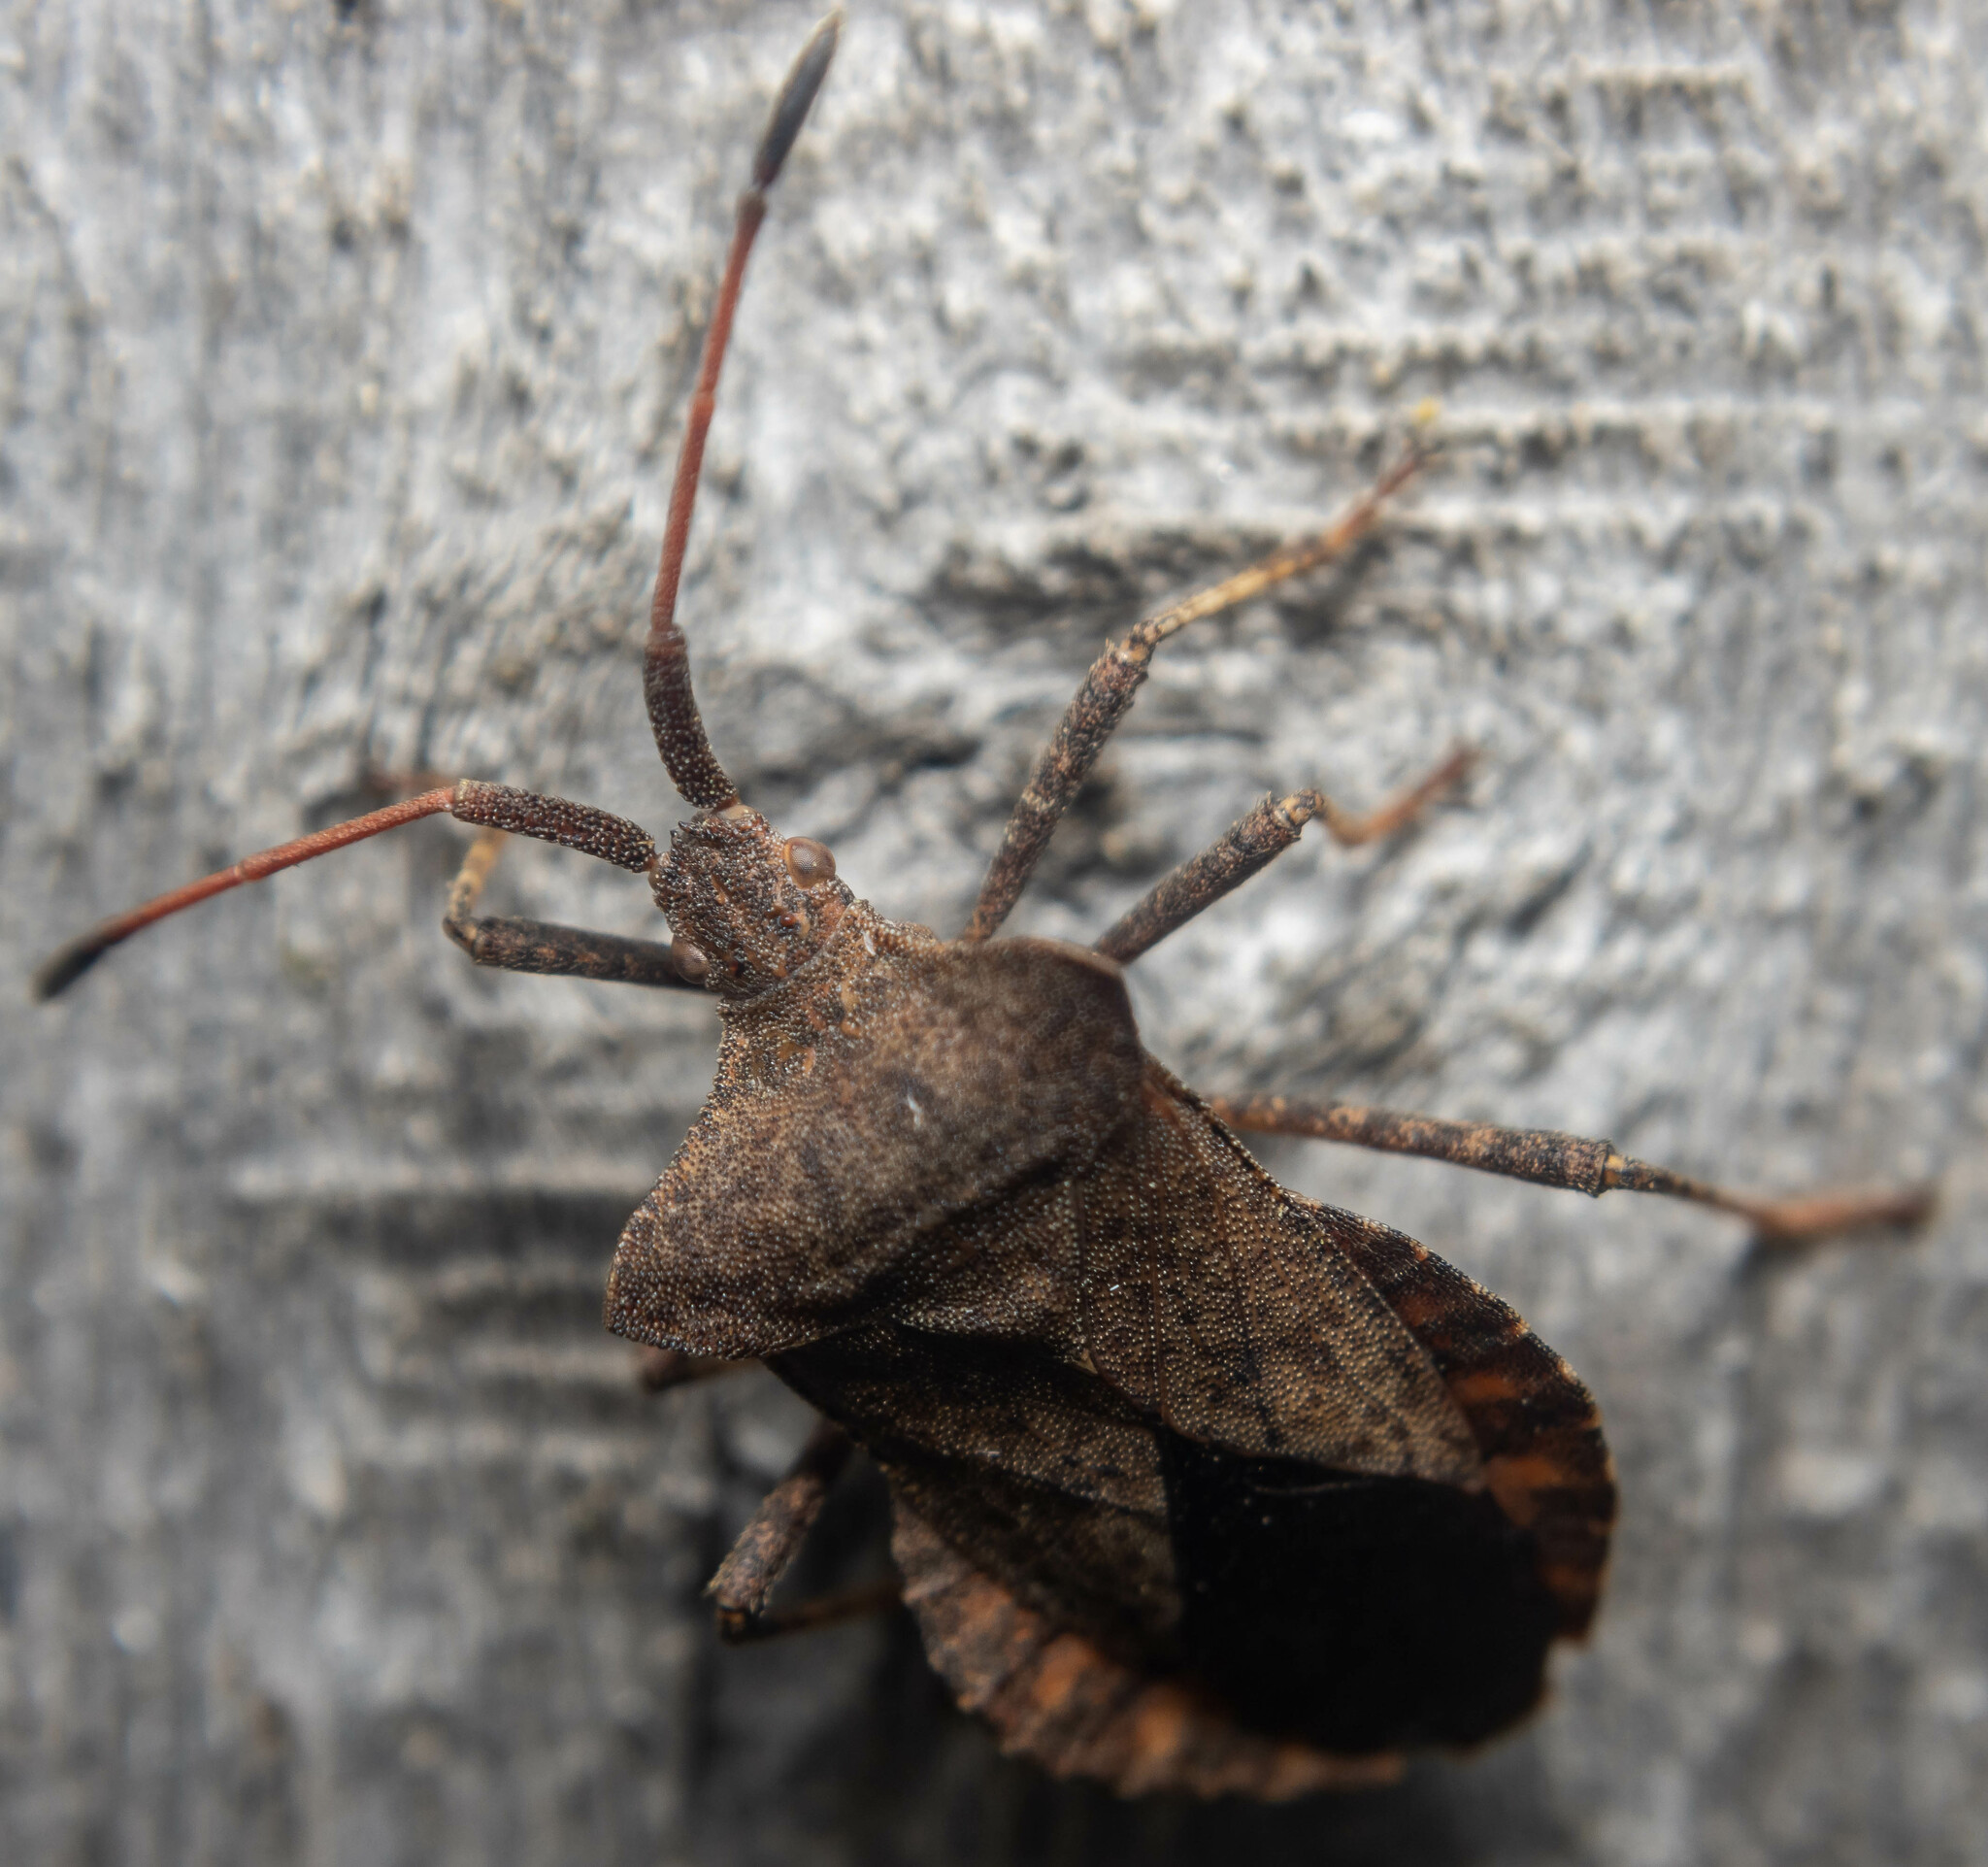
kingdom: Animalia
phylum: Arthropoda
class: Insecta
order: Hemiptera
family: Coreidae
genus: Coreus
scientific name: Coreus marginatus
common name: Dock bug
